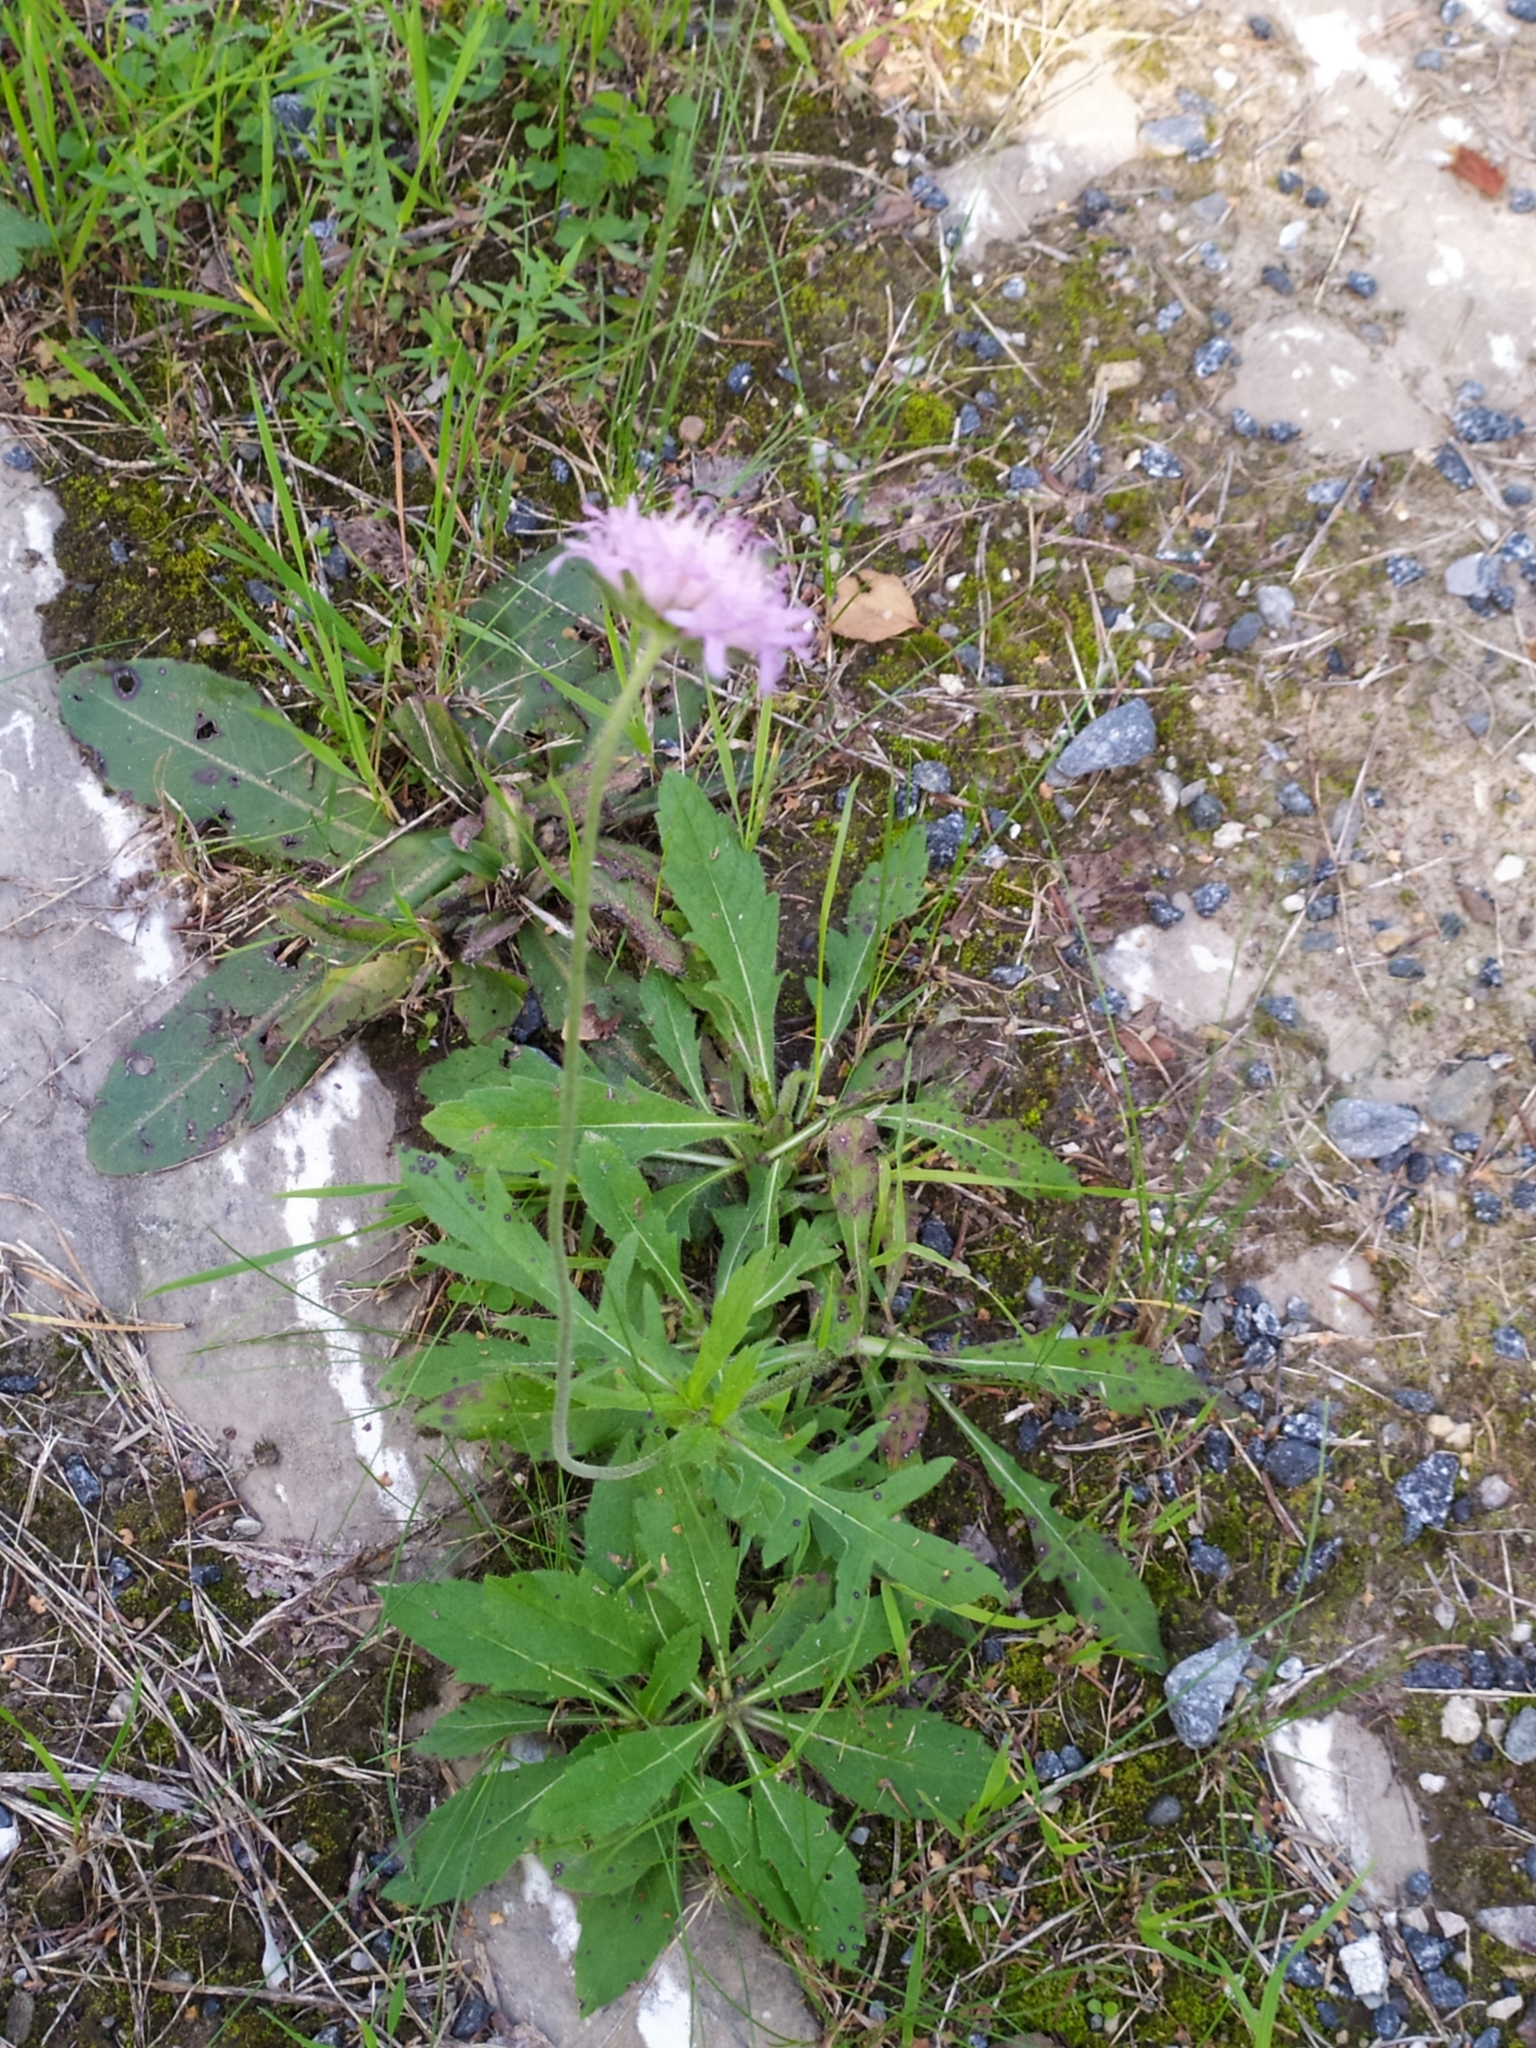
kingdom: Plantae
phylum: Tracheophyta
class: Magnoliopsida
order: Dipsacales
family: Caprifoliaceae
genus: Knautia
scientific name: Knautia arvensis
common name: Field scabiosa
